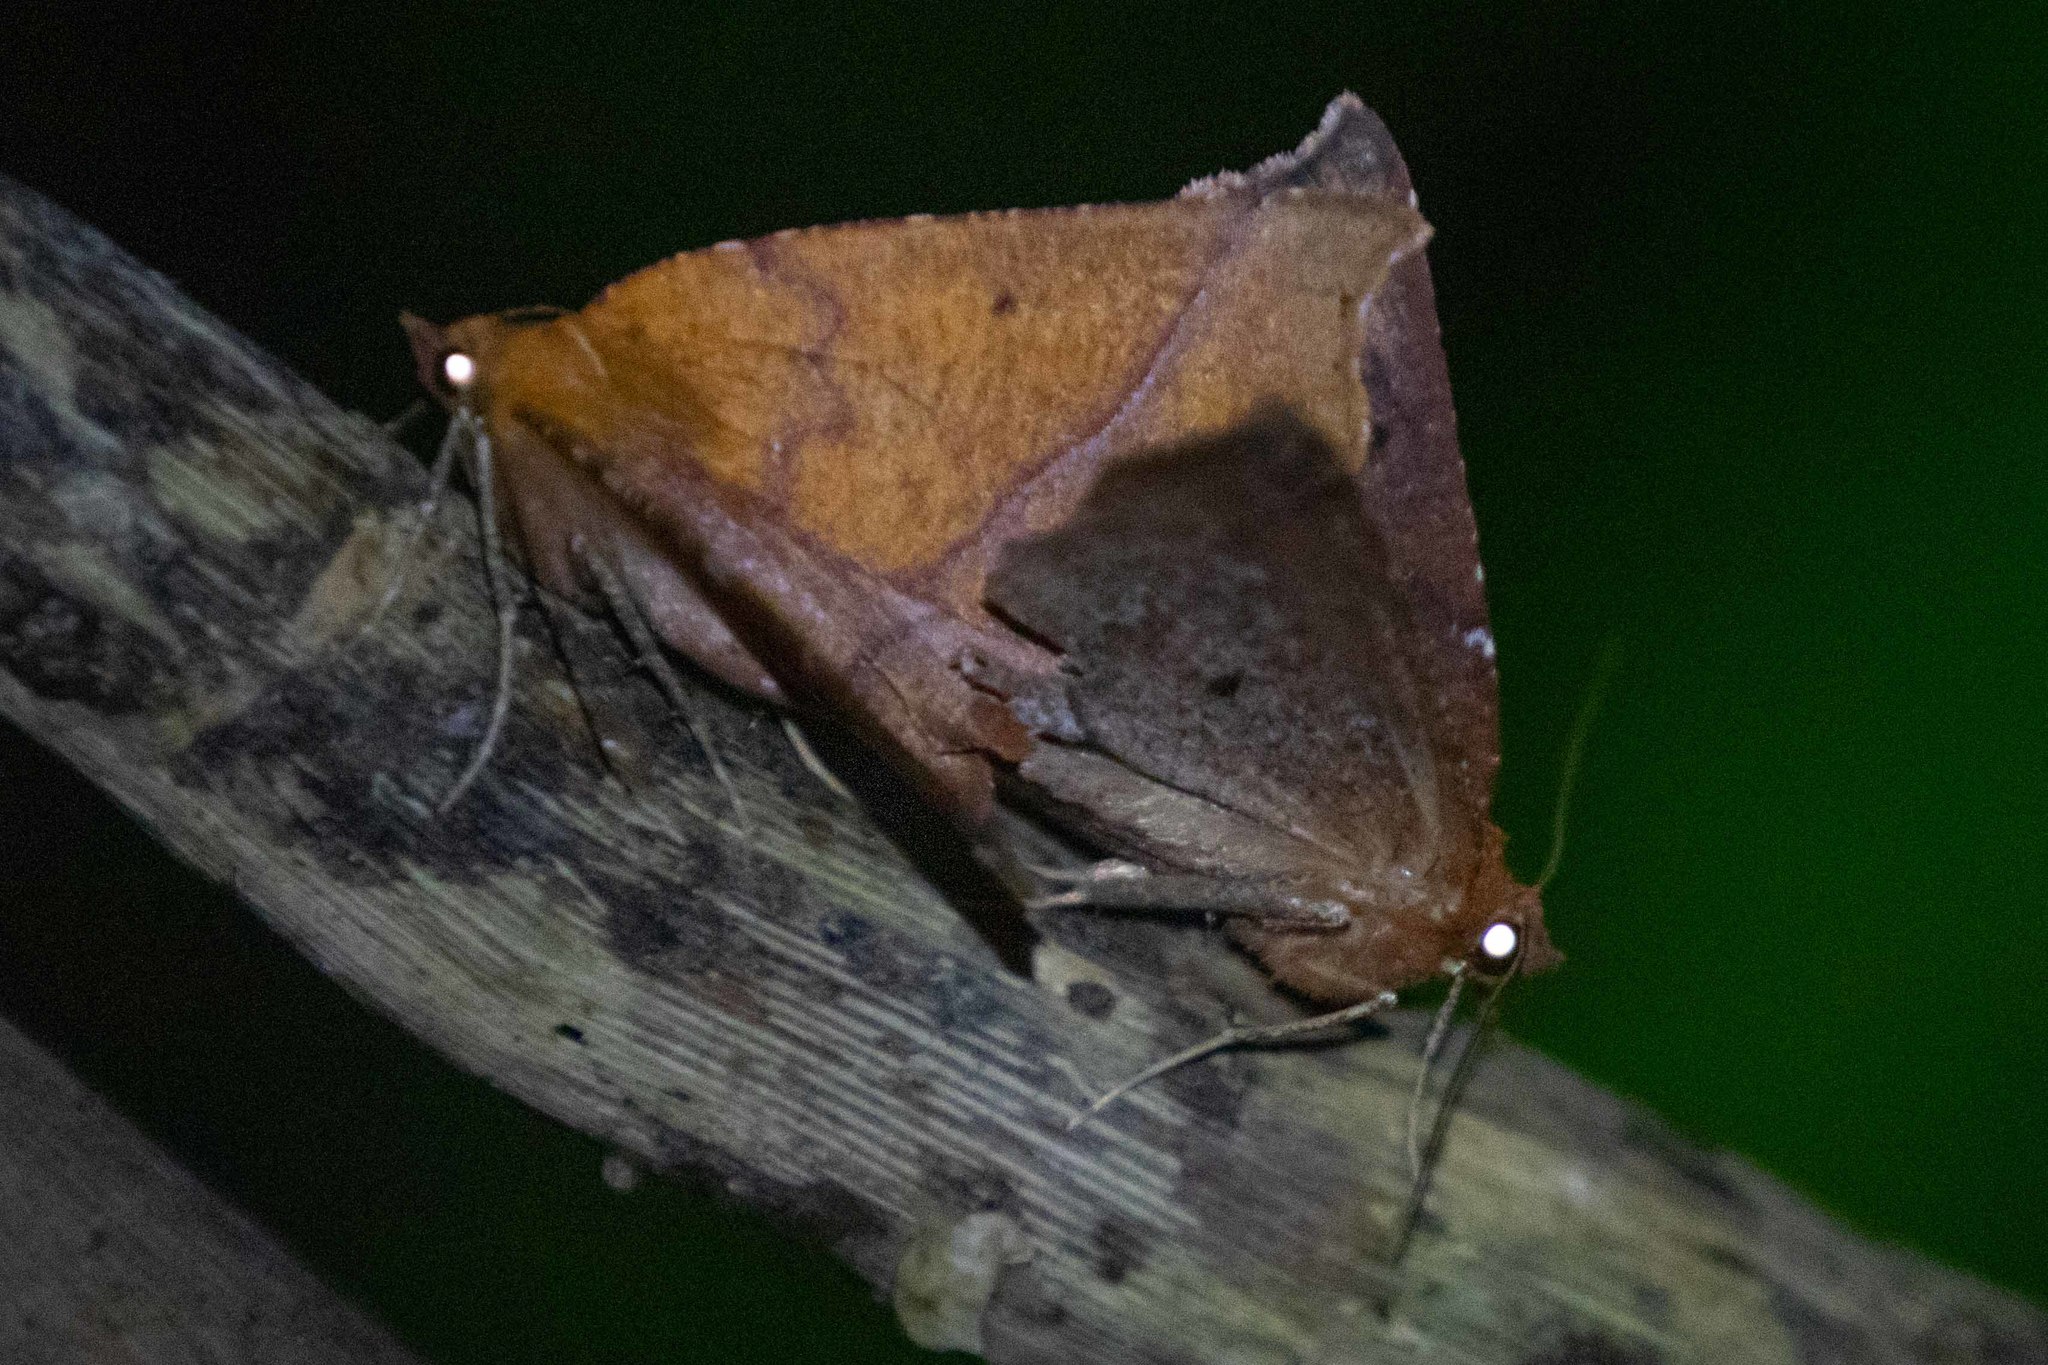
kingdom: Animalia
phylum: Arthropoda
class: Insecta
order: Lepidoptera
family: Geometridae
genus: Ischalis
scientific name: Ischalis nelsonaria
